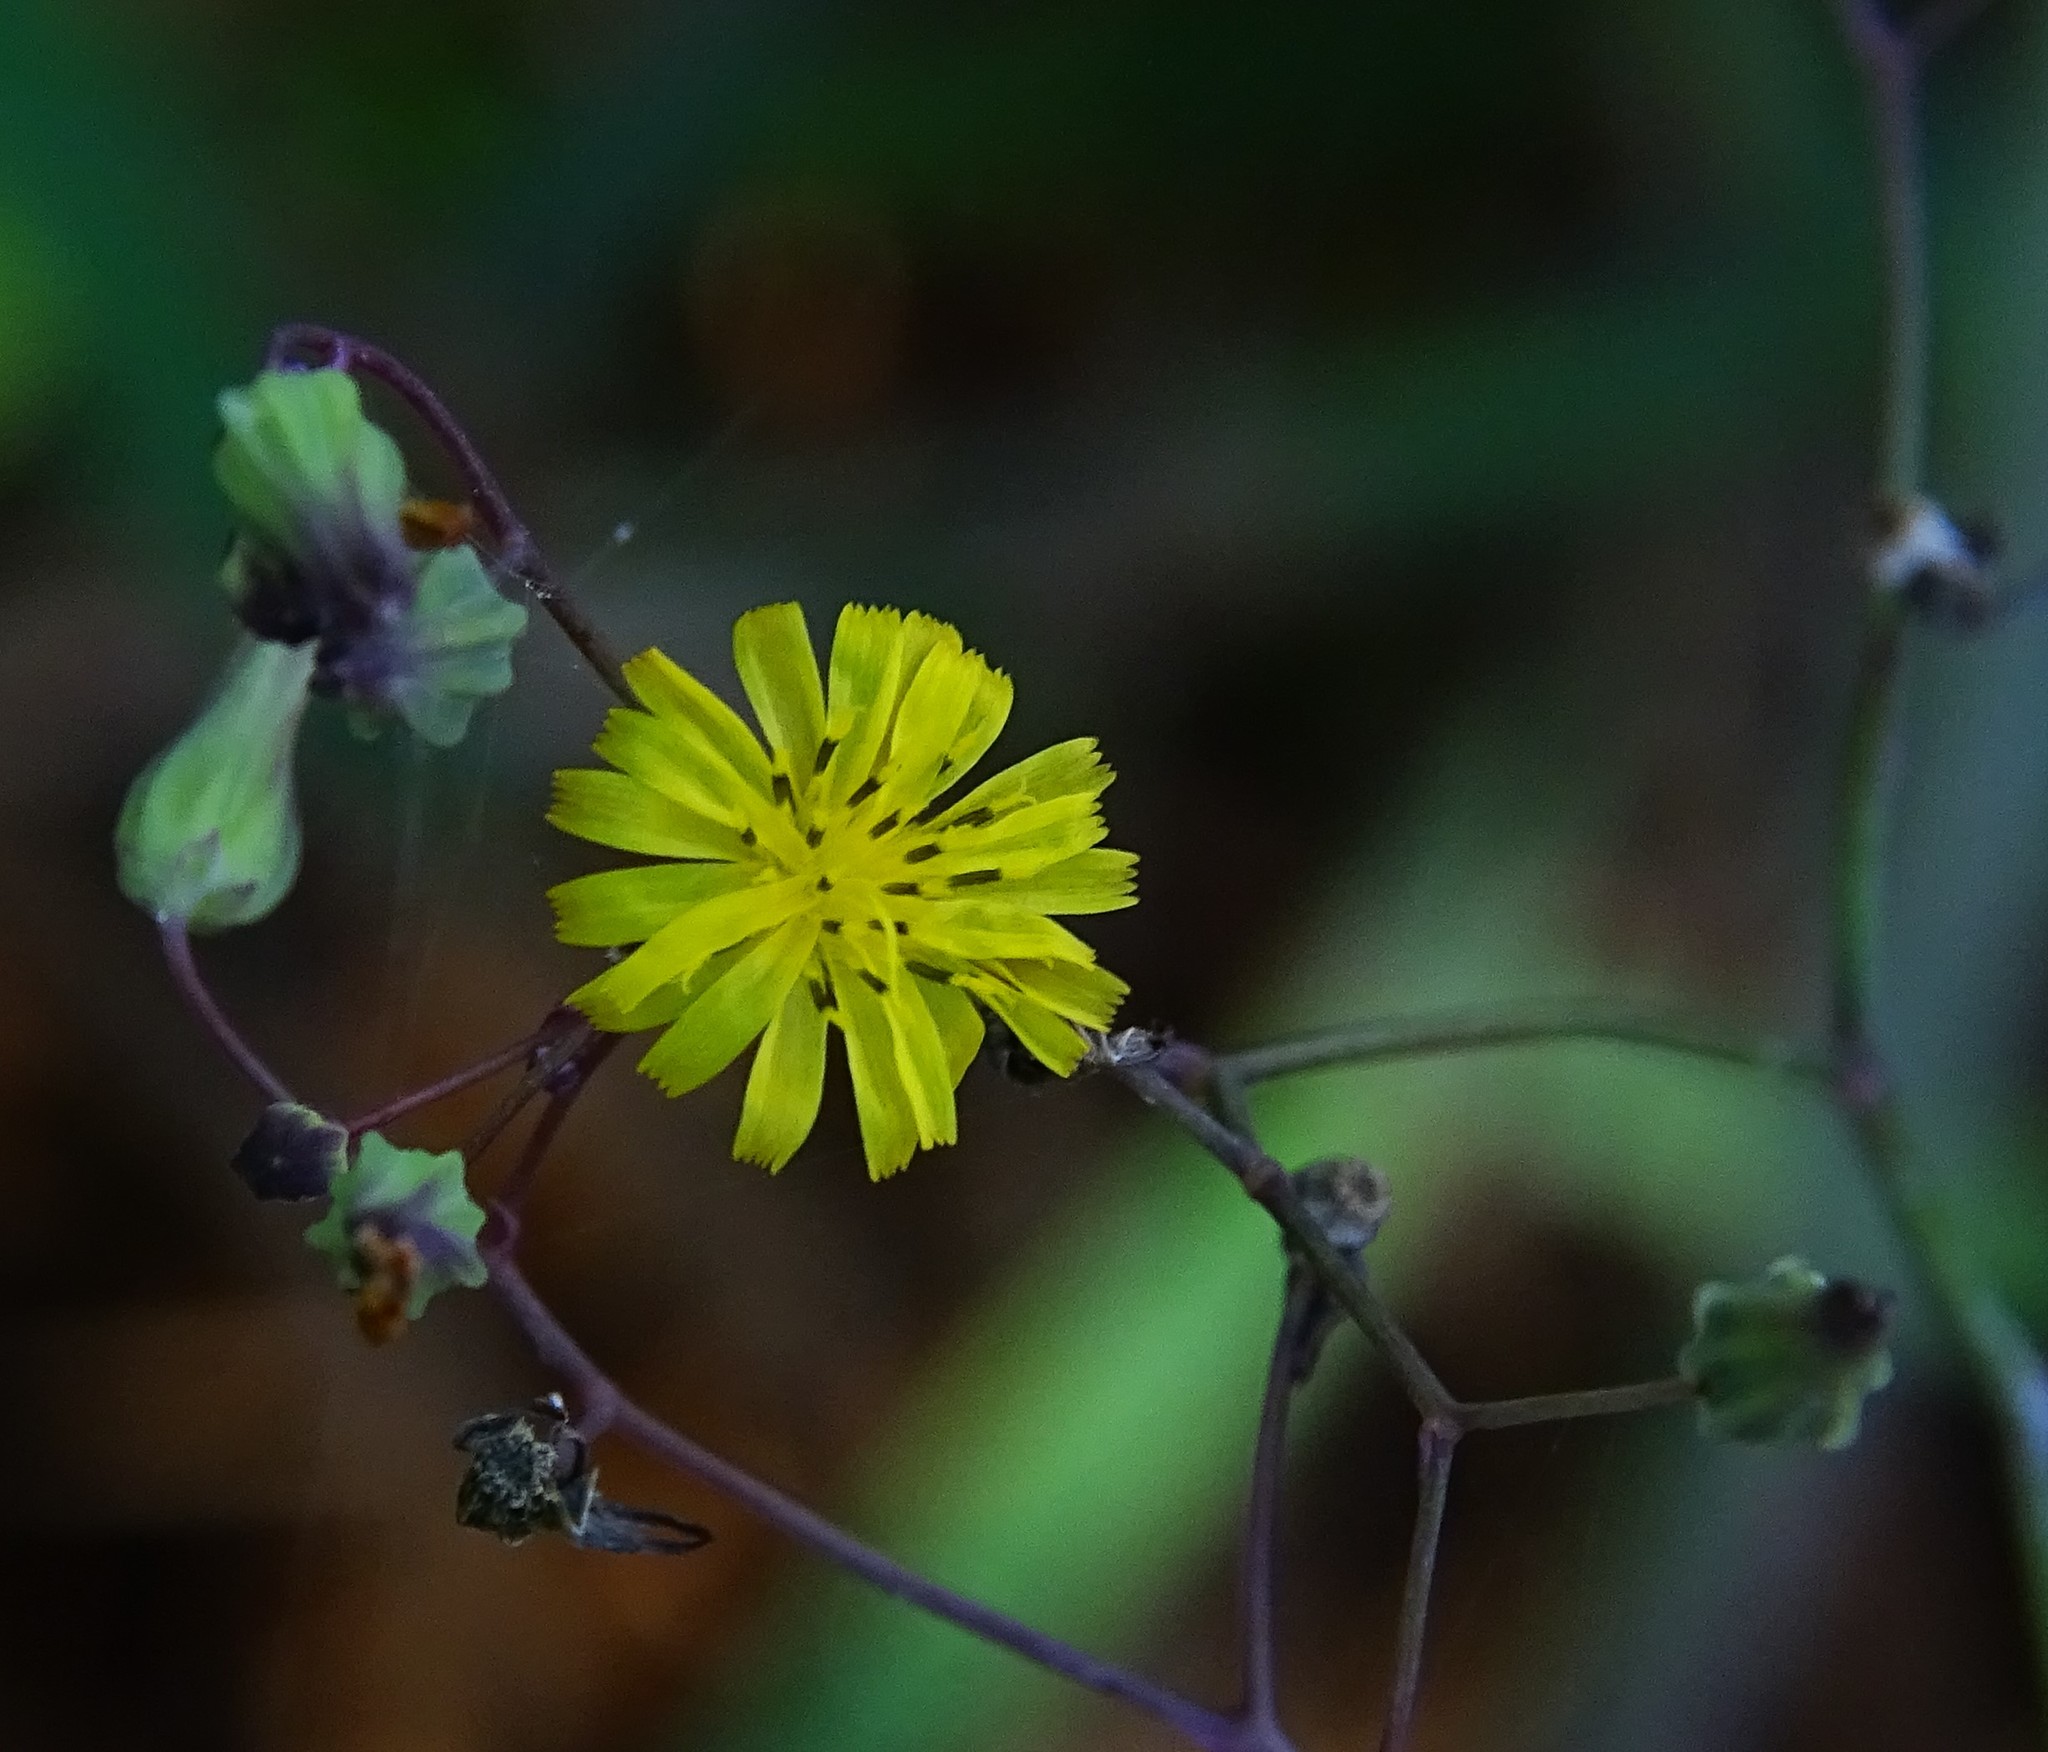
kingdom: Plantae
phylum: Tracheophyta
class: Magnoliopsida
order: Asterales
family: Asteraceae
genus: Youngia
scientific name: Youngia japonica
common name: Oriental false hawksbeard
